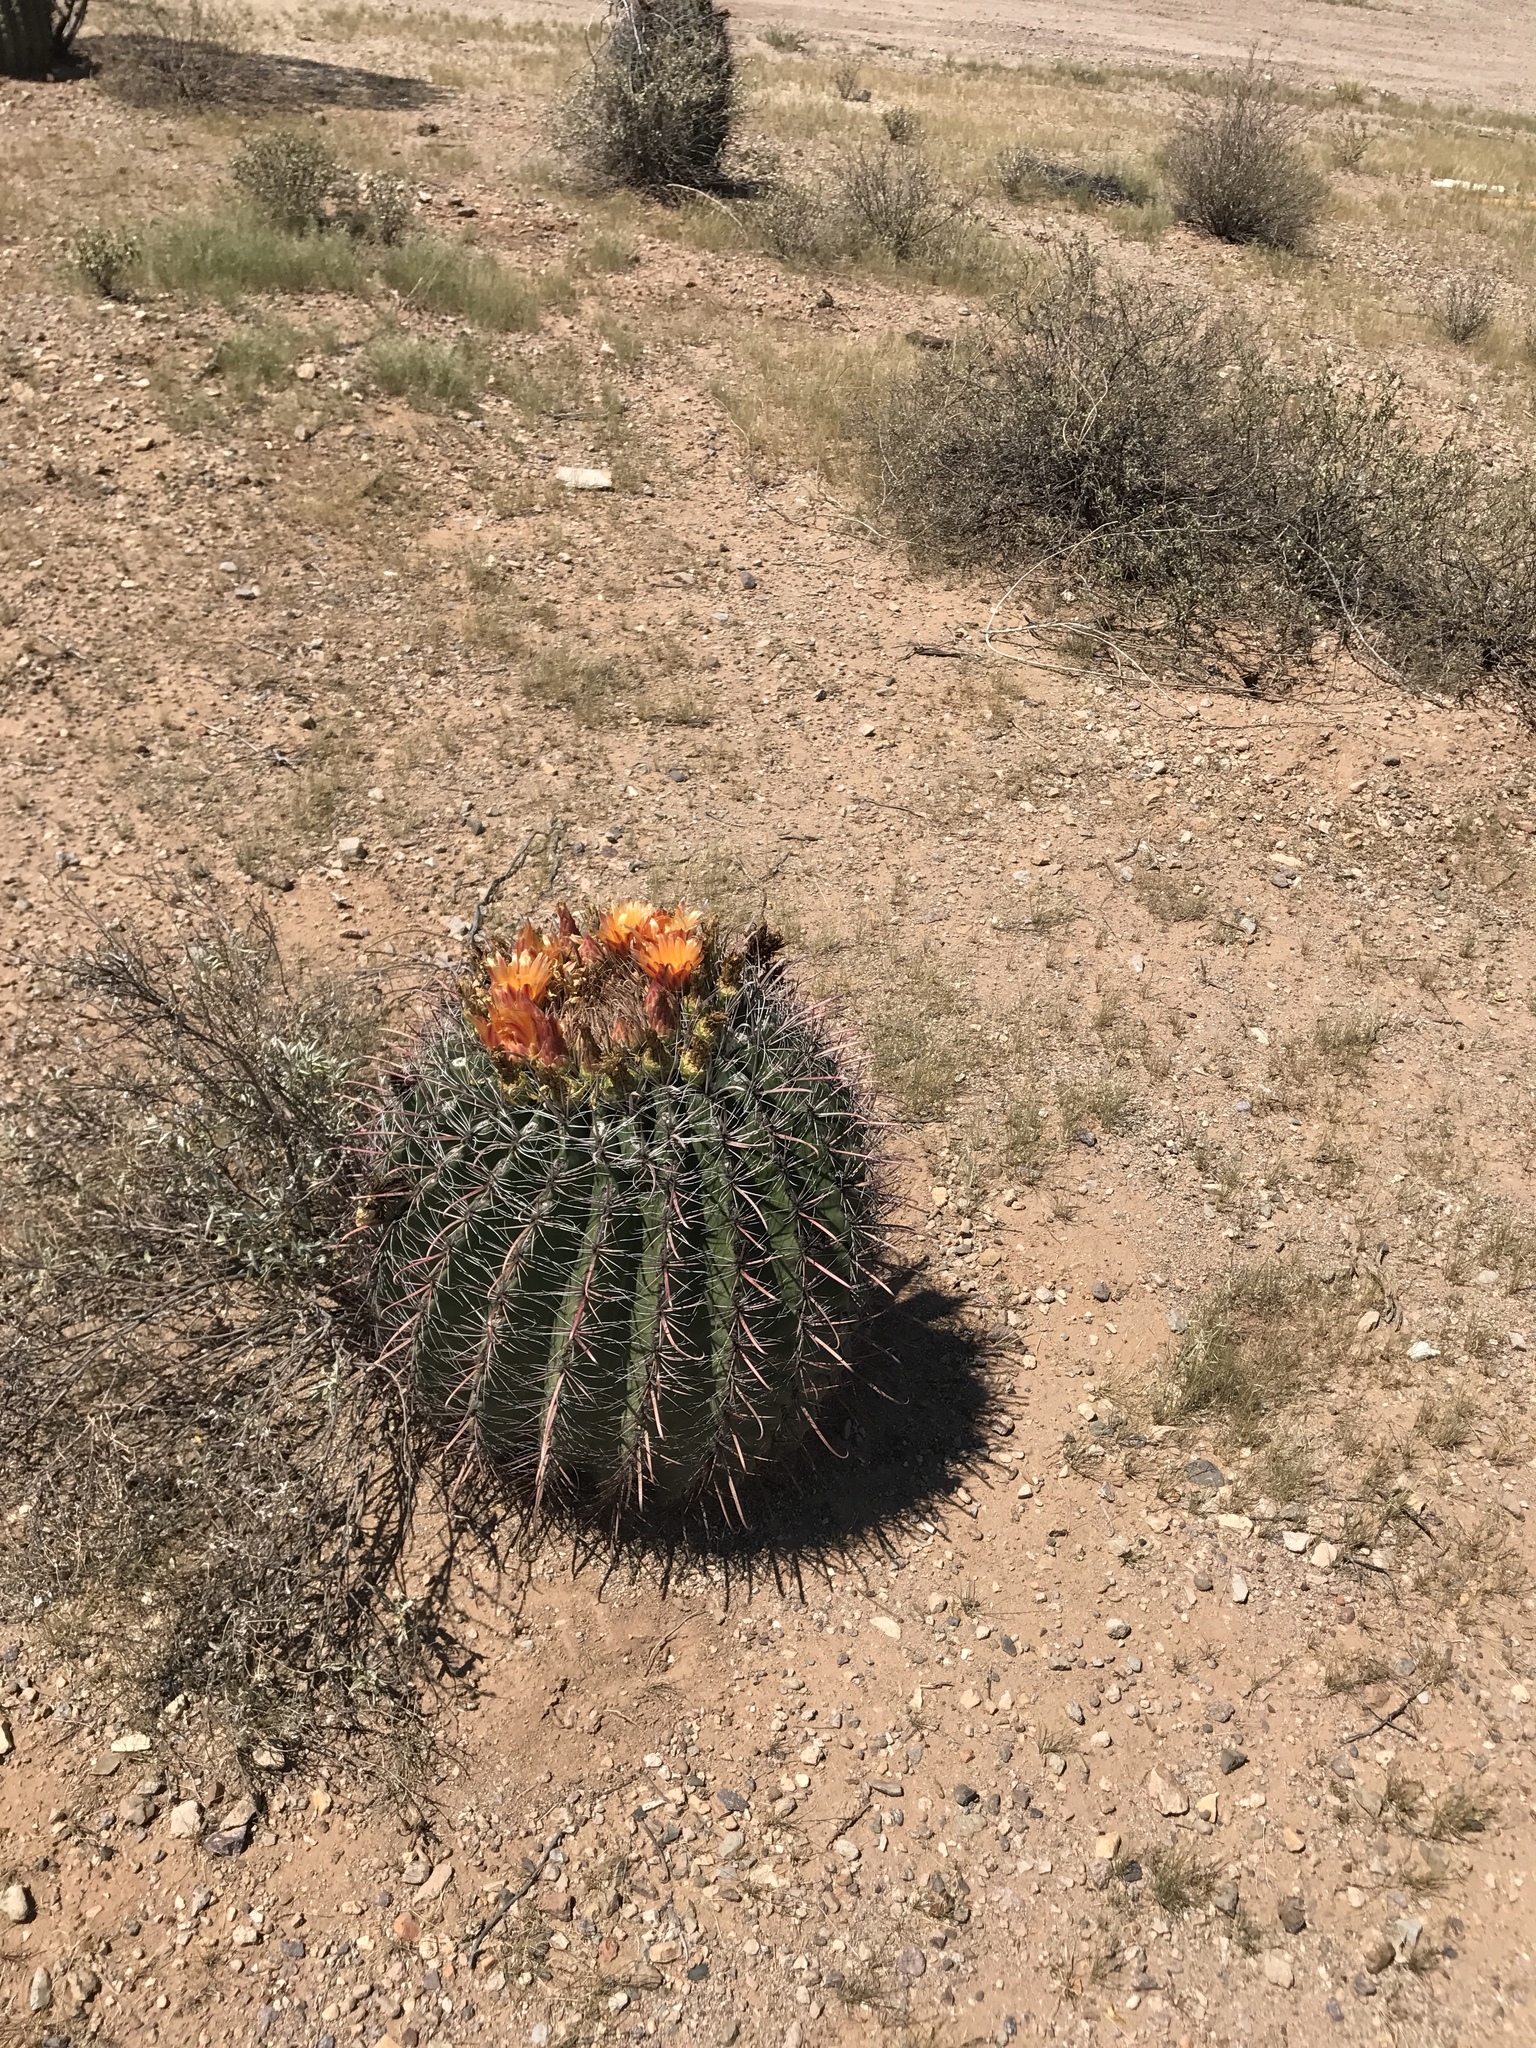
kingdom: Plantae
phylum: Tracheophyta
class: Magnoliopsida
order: Caryophyllales
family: Cactaceae
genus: Ferocactus
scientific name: Ferocactus wislizeni
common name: Candy barrel cactus
